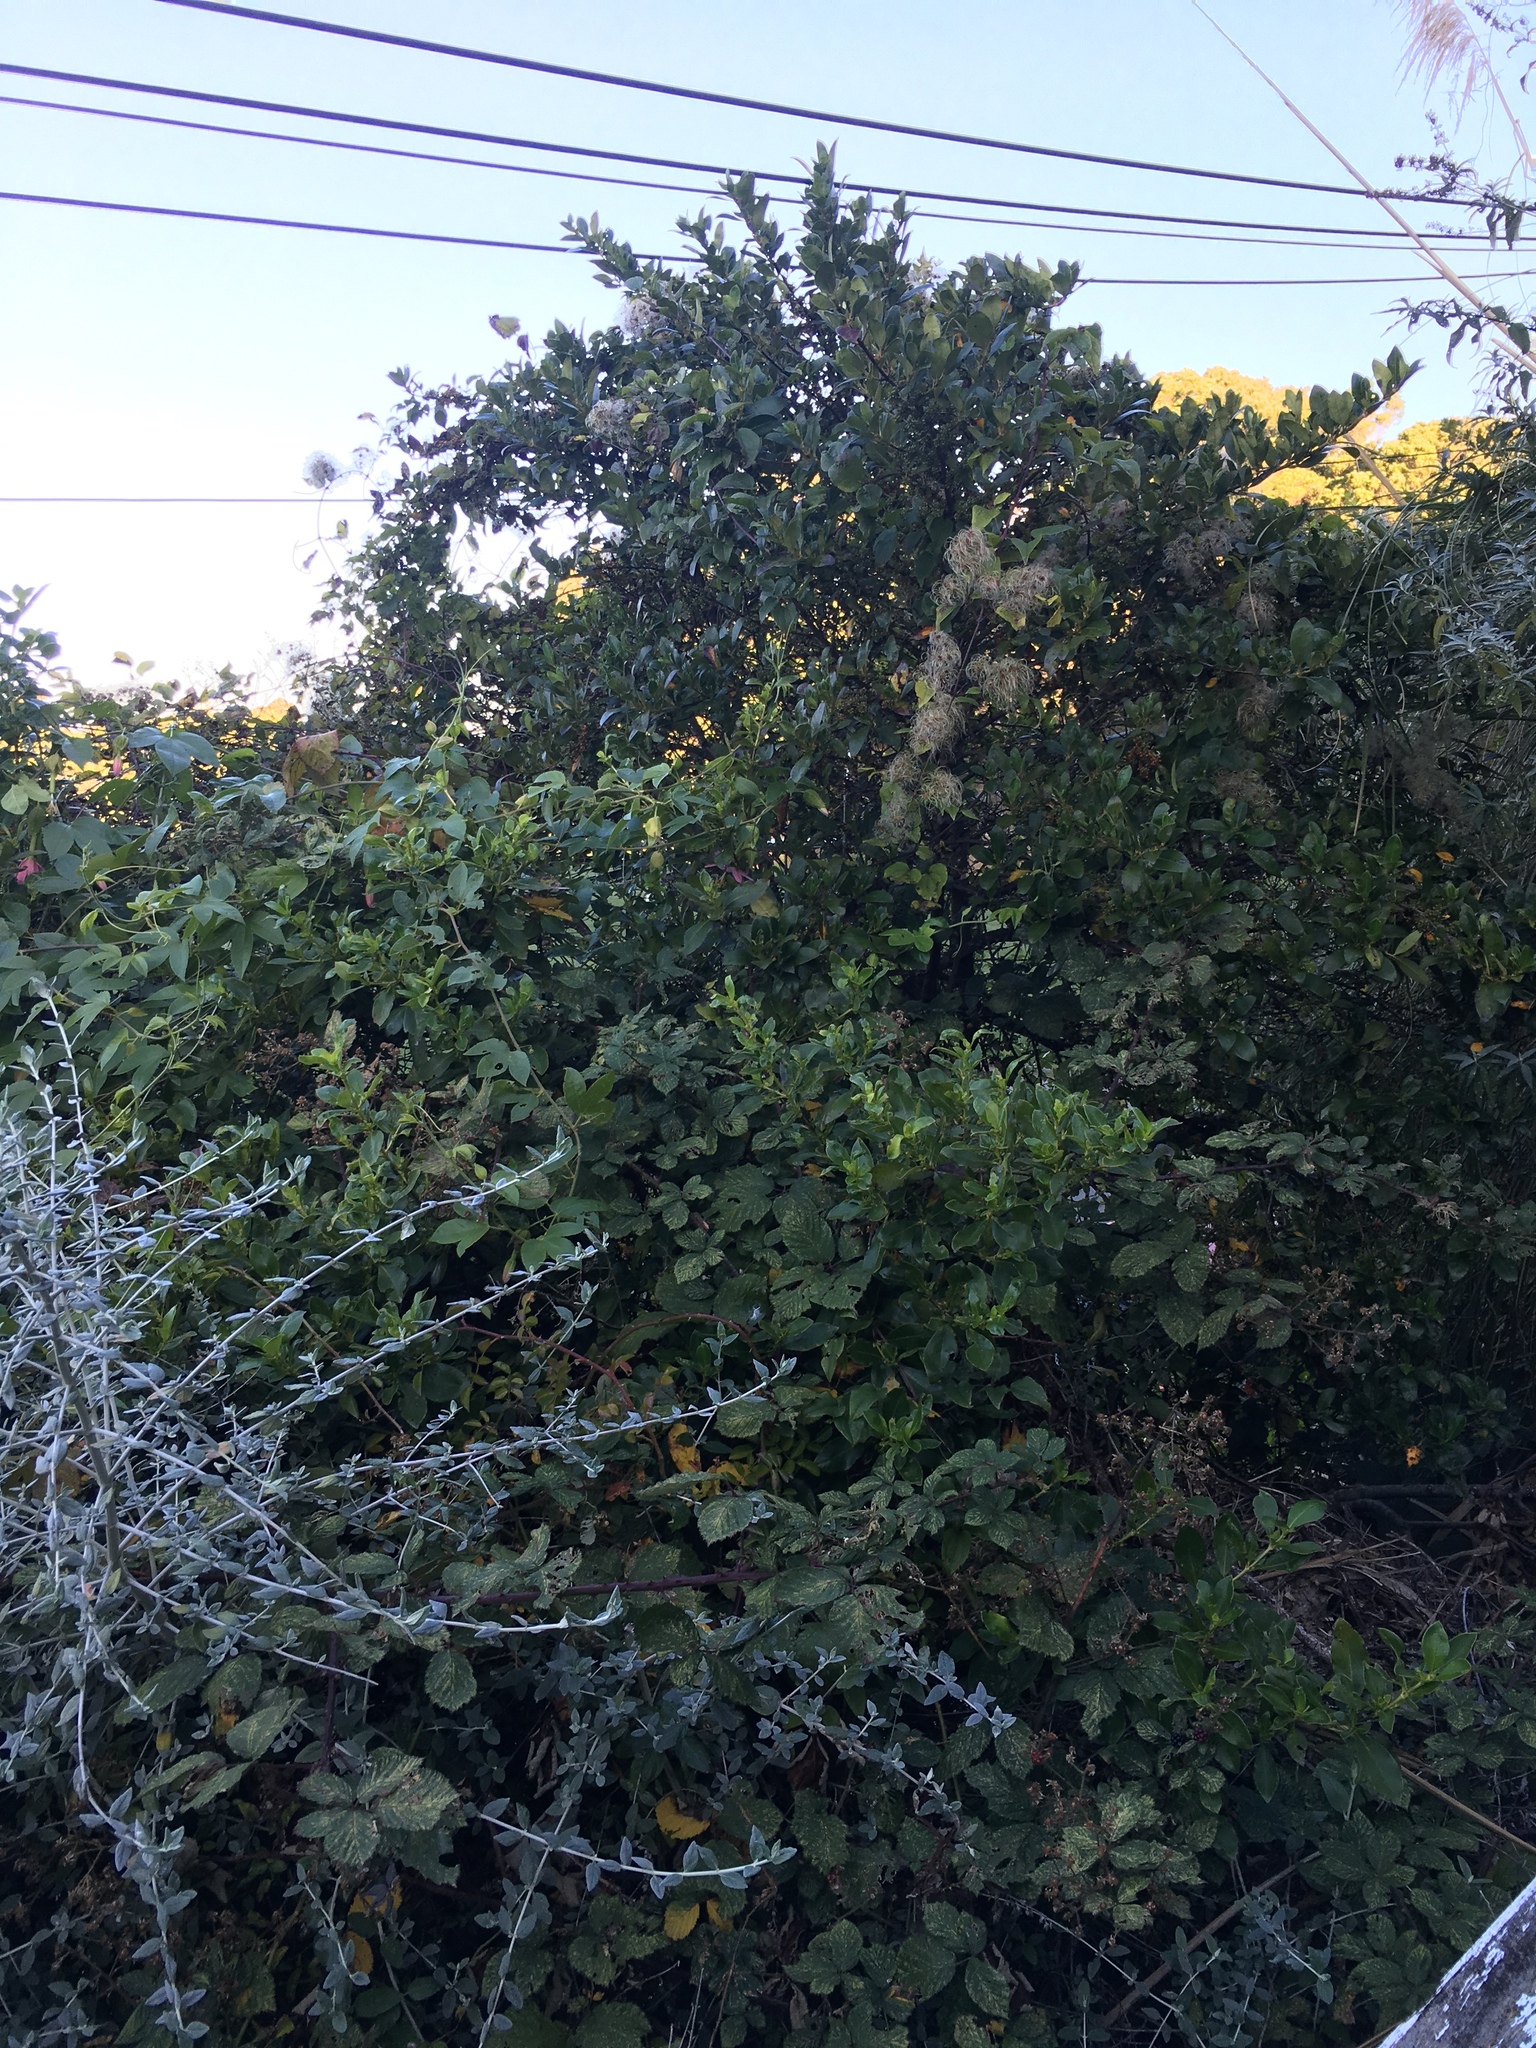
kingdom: Plantae
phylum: Tracheophyta
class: Magnoliopsida
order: Ranunculales
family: Ranunculaceae
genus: Clematis
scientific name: Clematis vitalba
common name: Evergreen clematis
